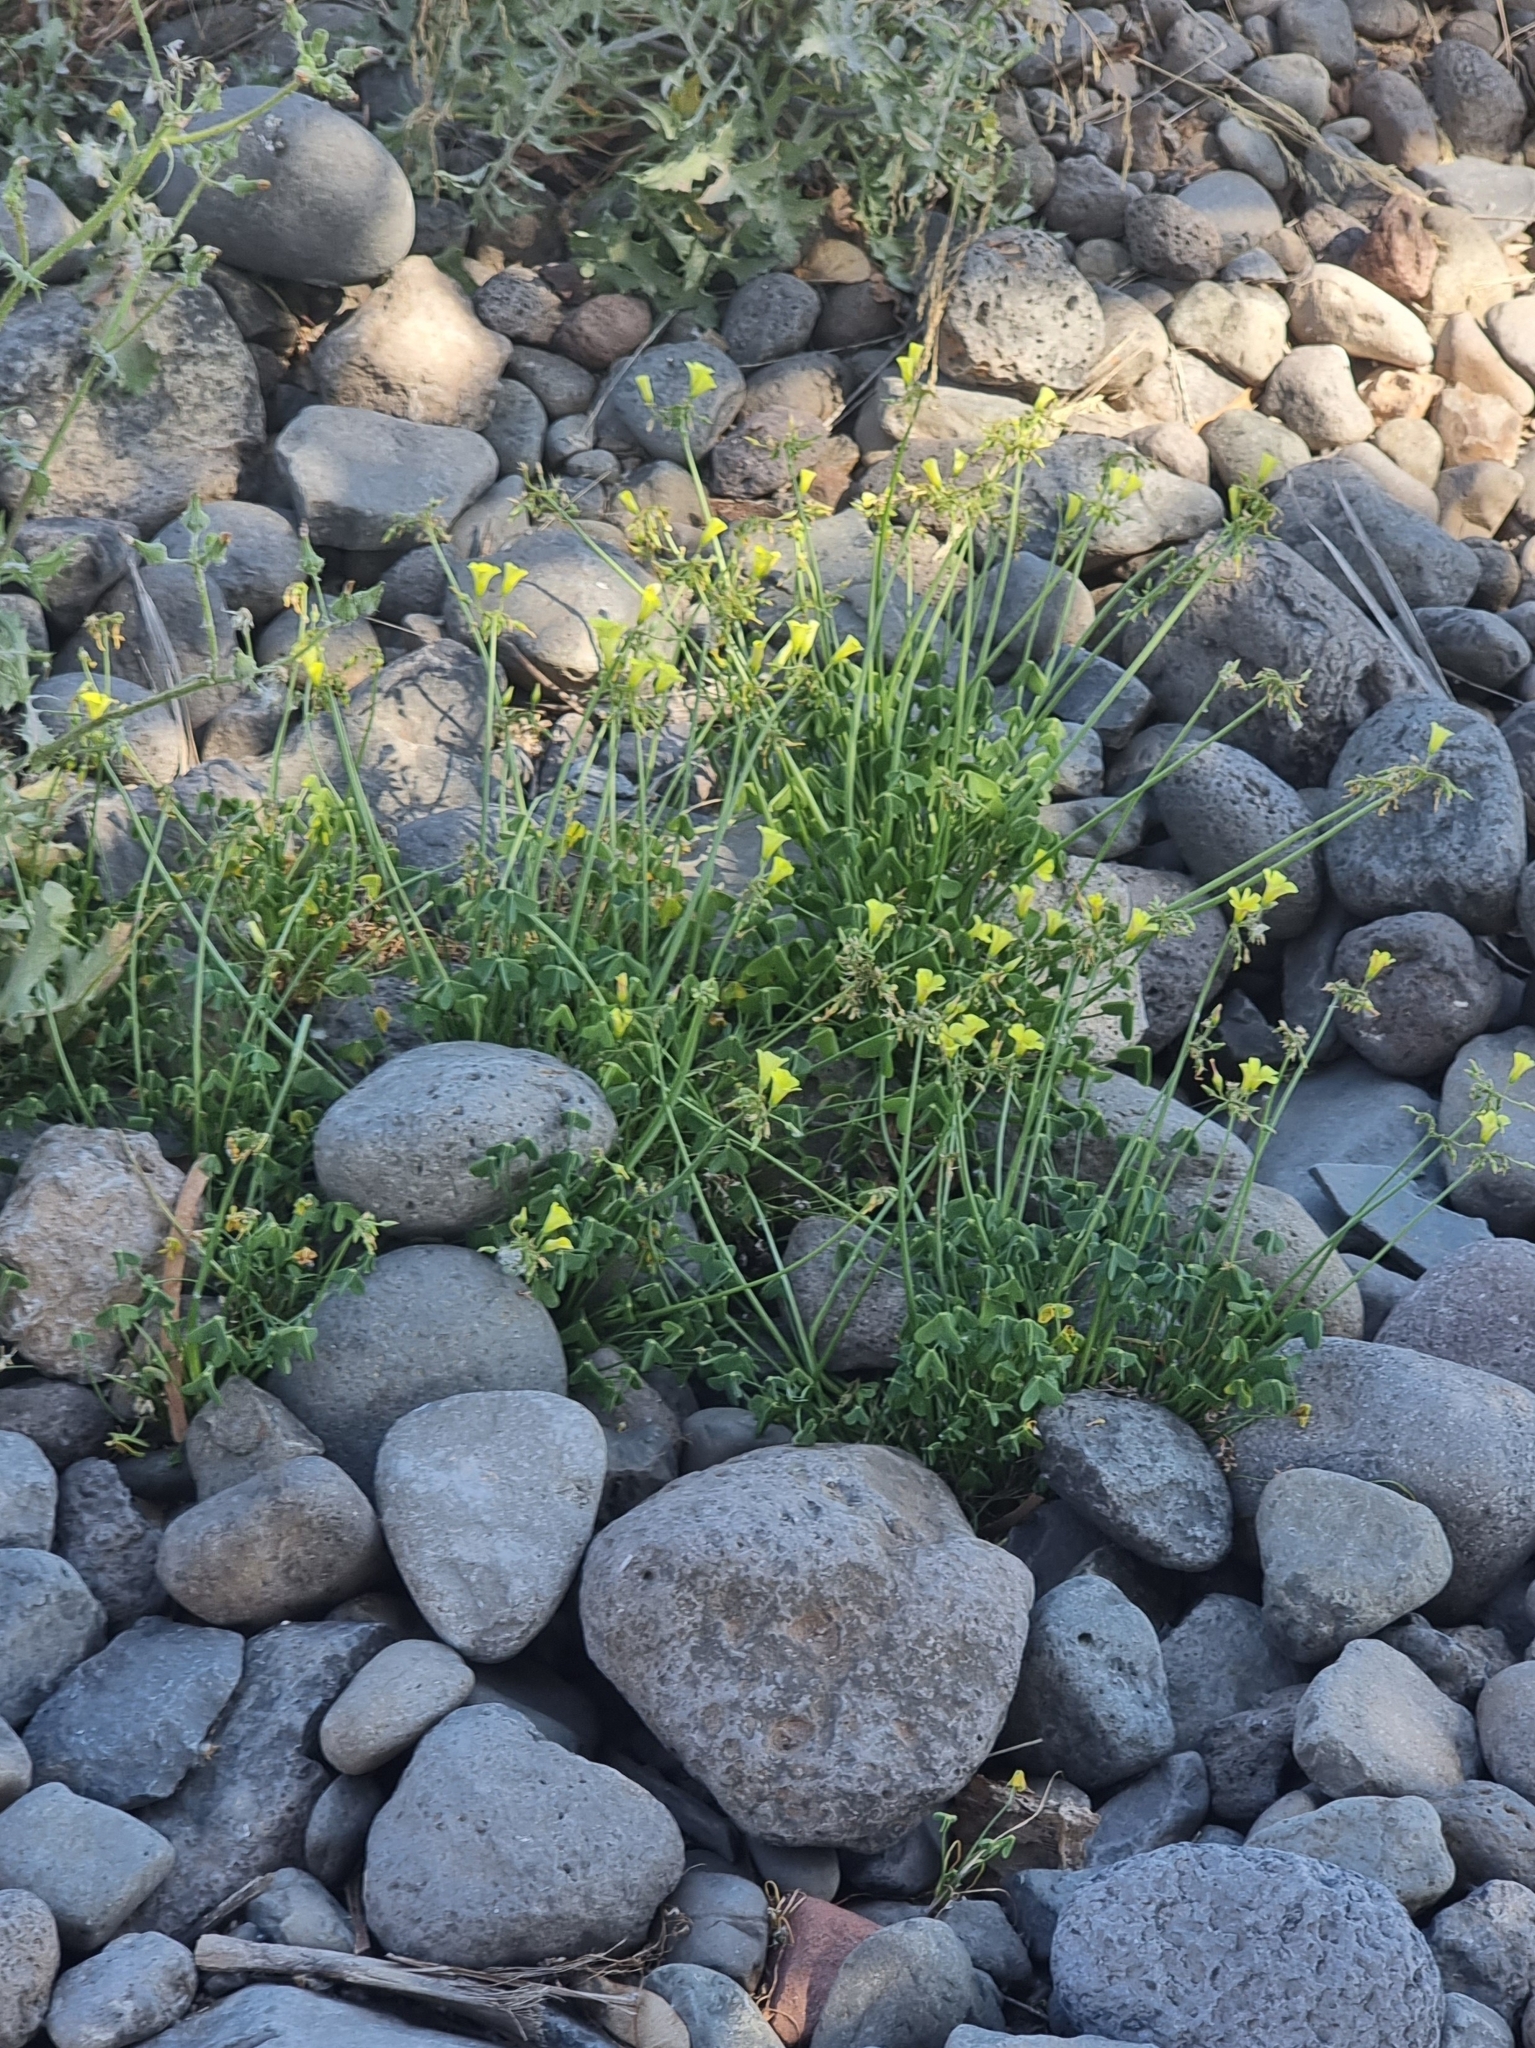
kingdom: Plantae
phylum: Tracheophyta
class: Magnoliopsida
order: Oxalidales
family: Oxalidaceae
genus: Oxalis
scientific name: Oxalis pes-caprae
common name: Bermuda-buttercup
